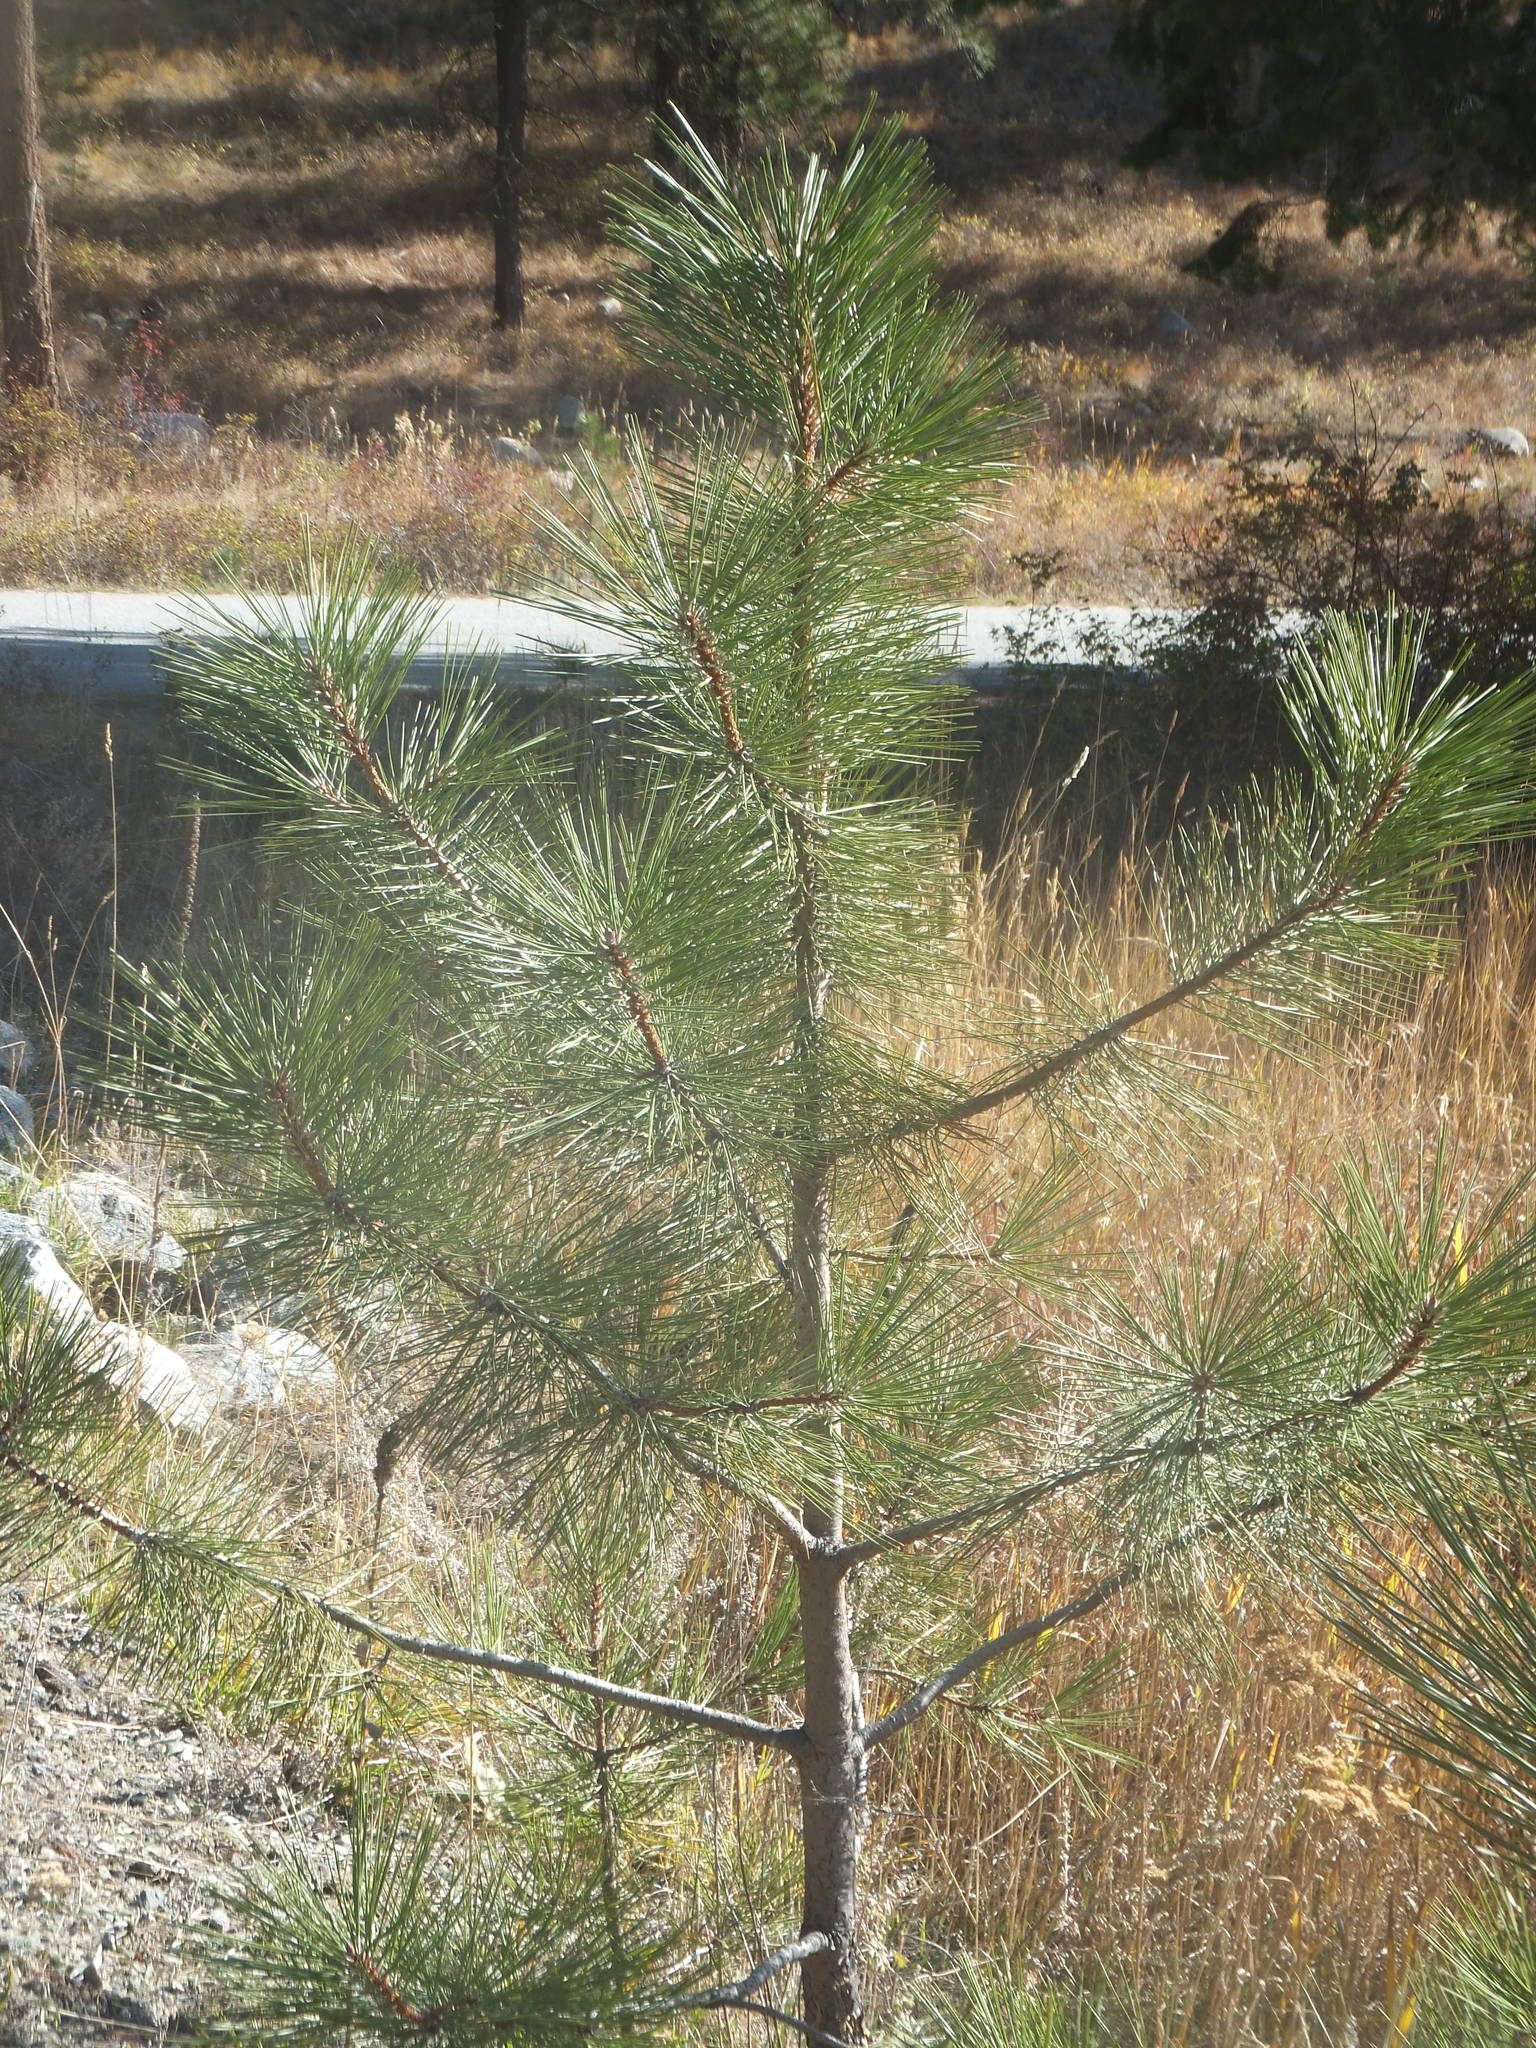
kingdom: Plantae
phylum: Tracheophyta
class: Pinopsida
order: Pinales
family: Pinaceae
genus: Pinus
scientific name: Pinus ponderosa
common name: Western yellow-pine
